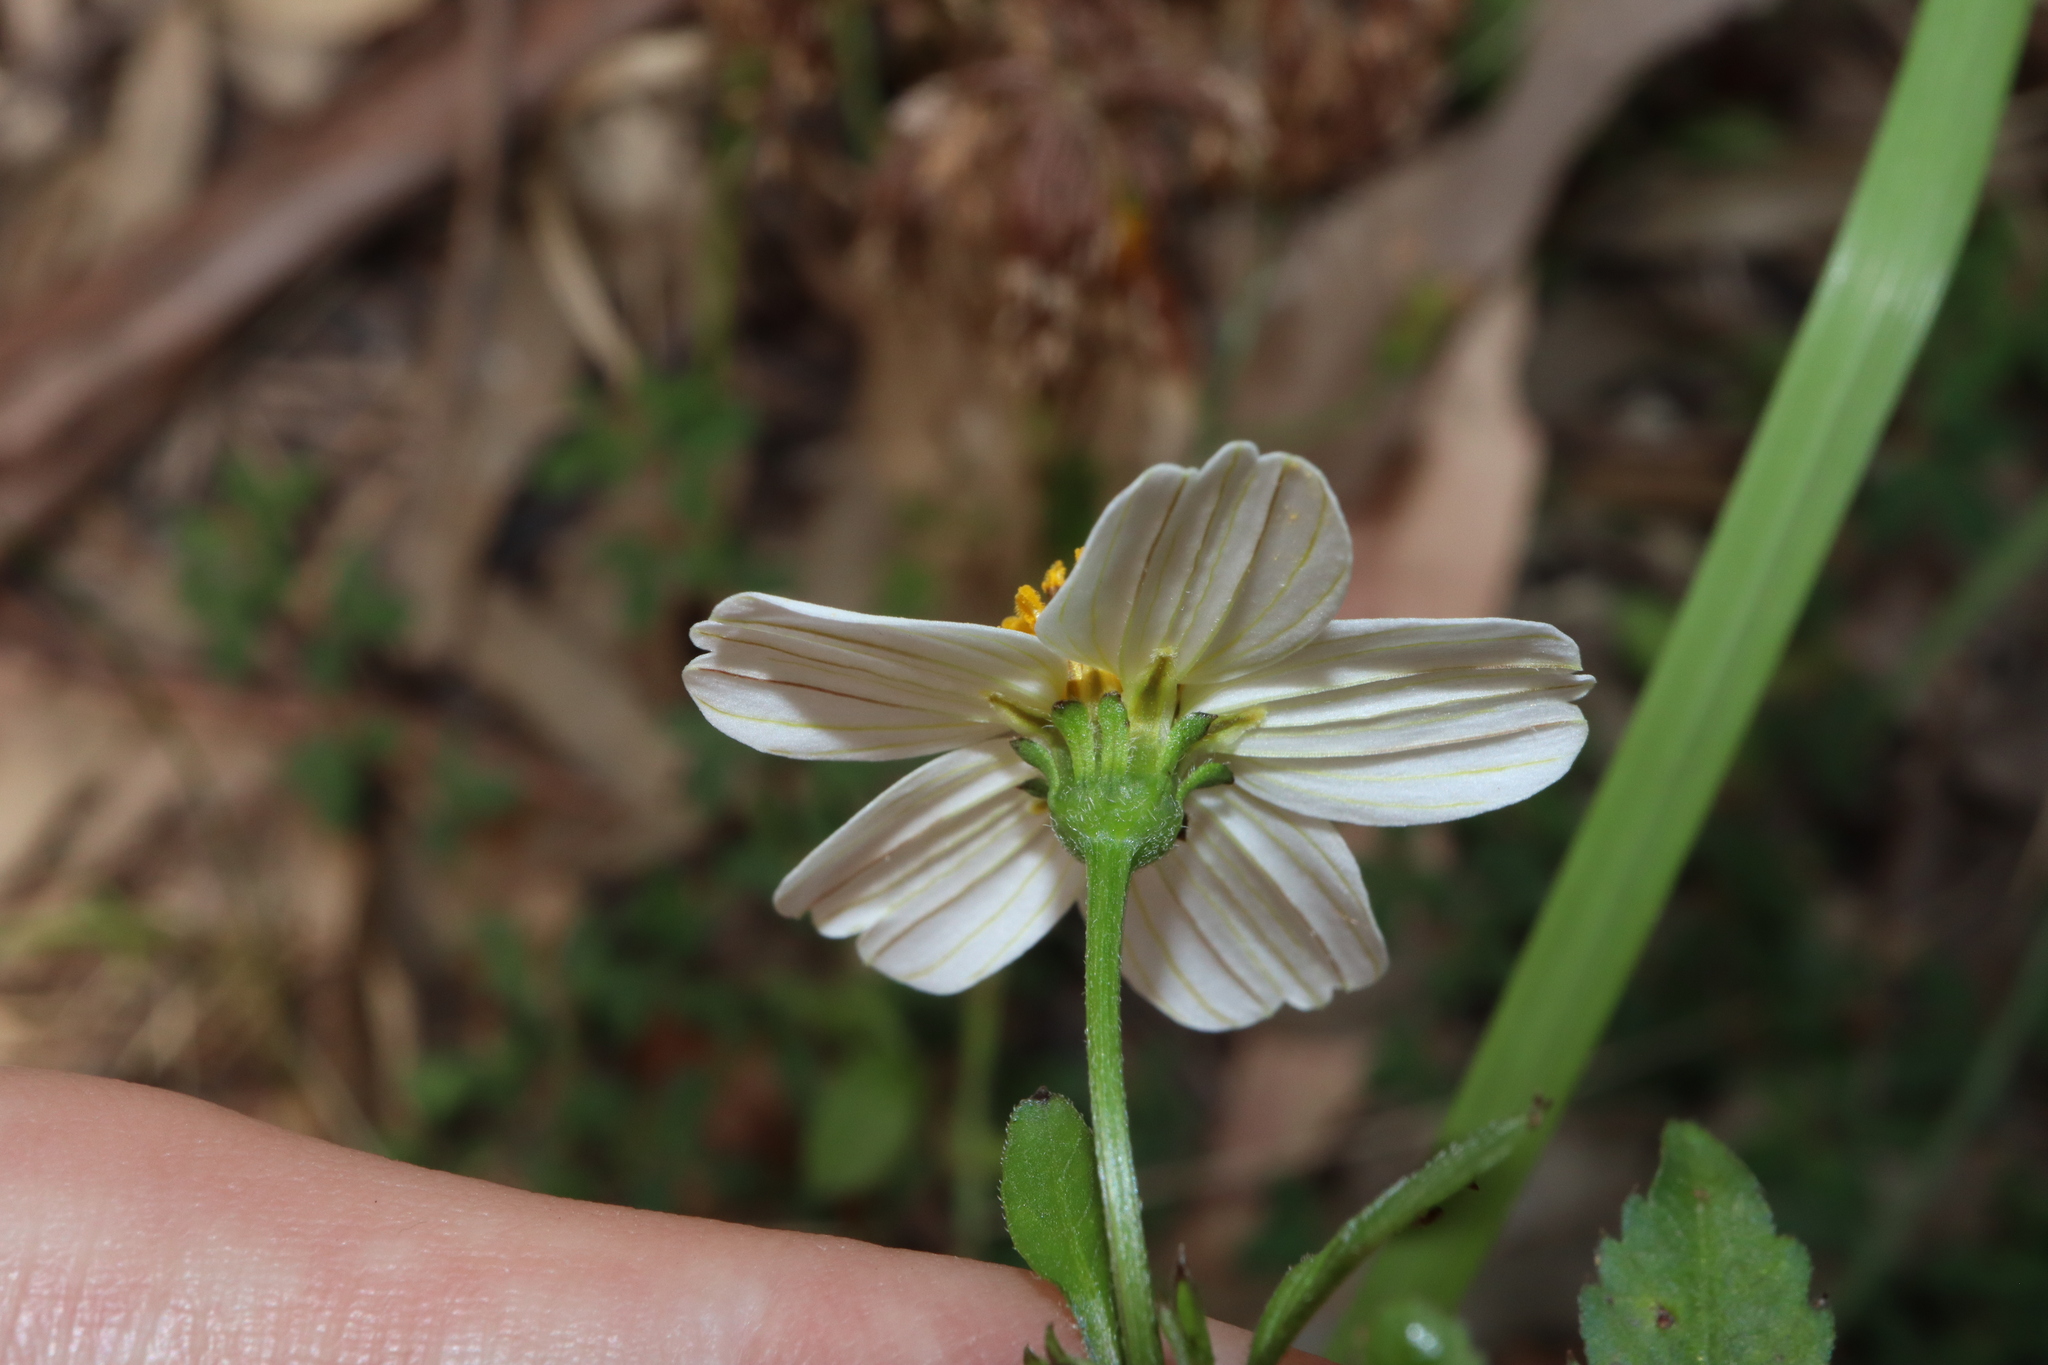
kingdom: Plantae
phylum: Tracheophyta
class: Magnoliopsida
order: Asterales
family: Asteraceae
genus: Bidens
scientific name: Bidens alba
